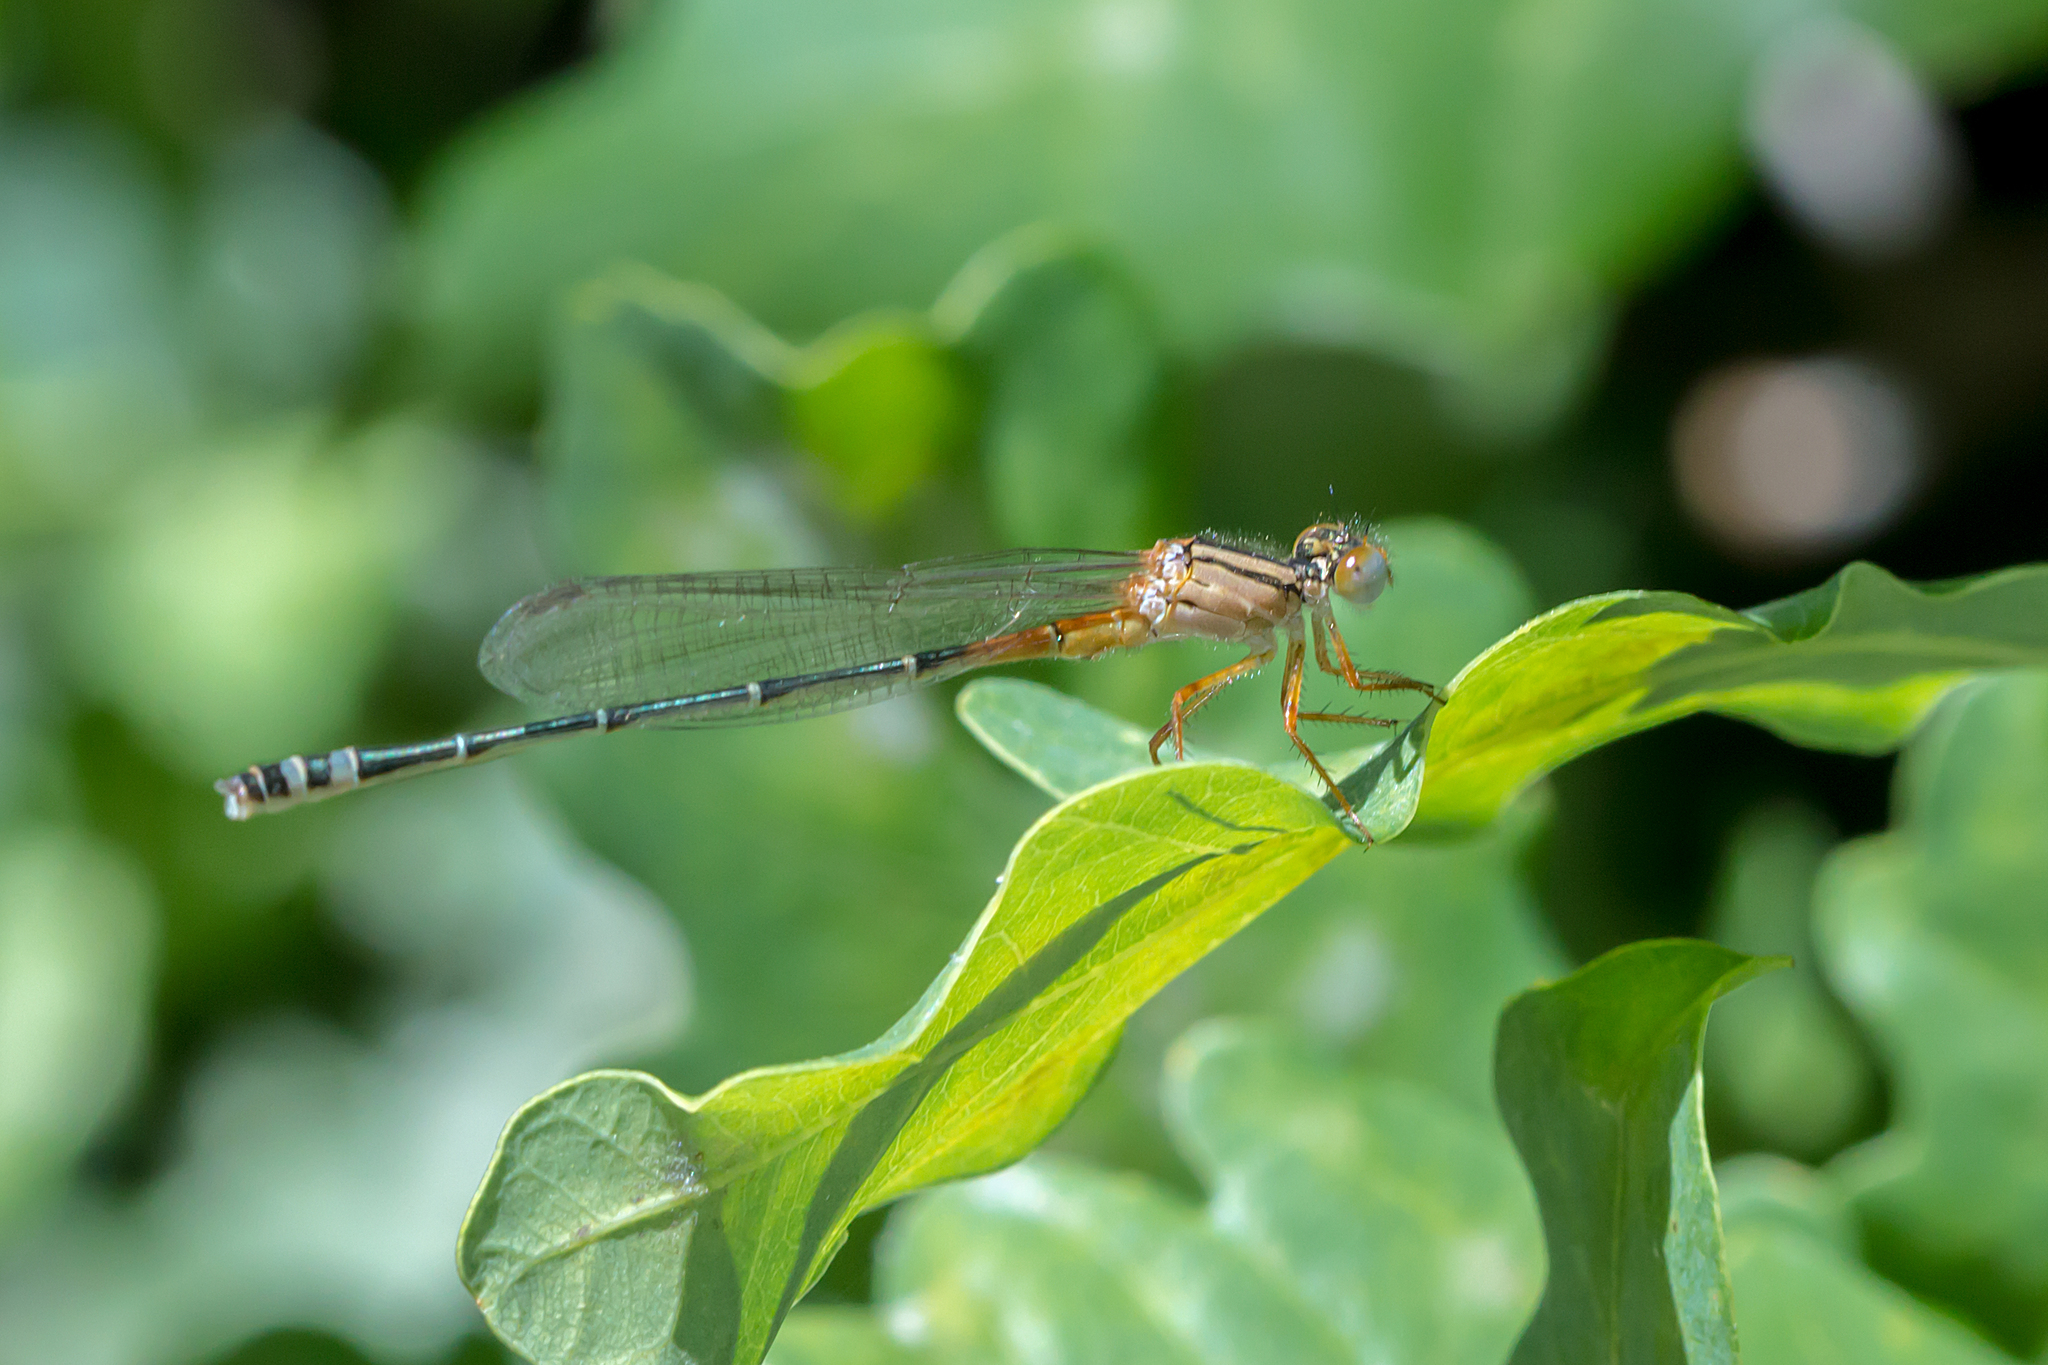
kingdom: Animalia
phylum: Arthropoda
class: Insecta
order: Odonata
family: Coenagrionidae
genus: Xanthagrion
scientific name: Xanthagrion erythroneurum
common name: Red and blue damsel
